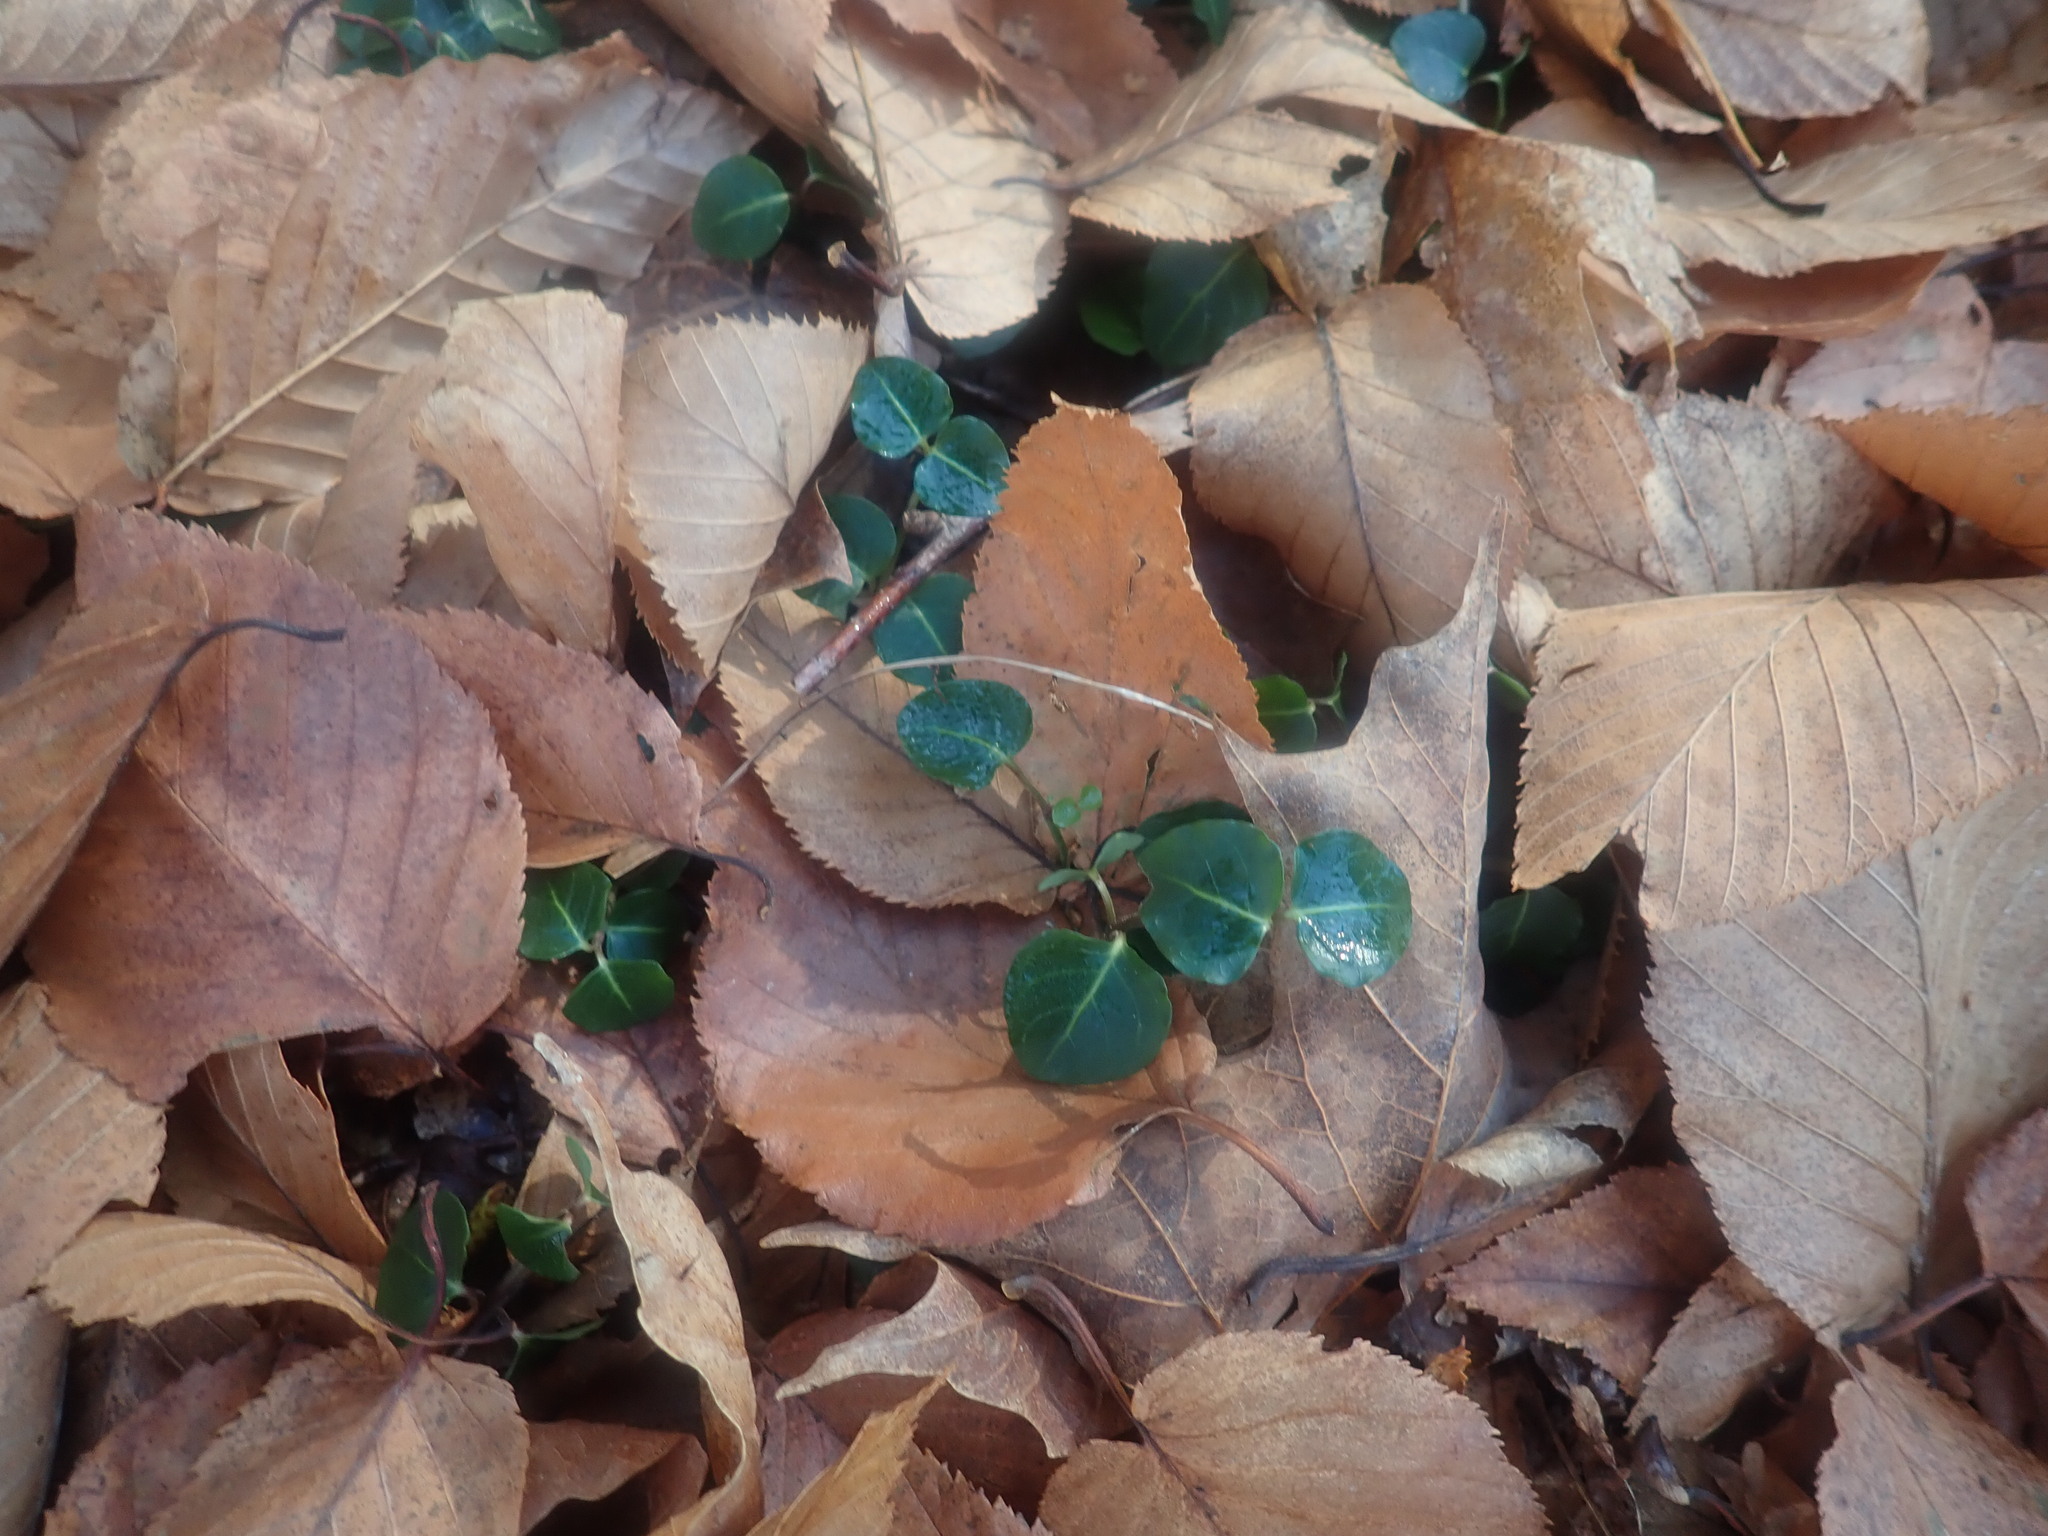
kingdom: Plantae
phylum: Tracheophyta
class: Magnoliopsida
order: Gentianales
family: Rubiaceae
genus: Mitchella
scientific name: Mitchella repens
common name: Partridge-berry
